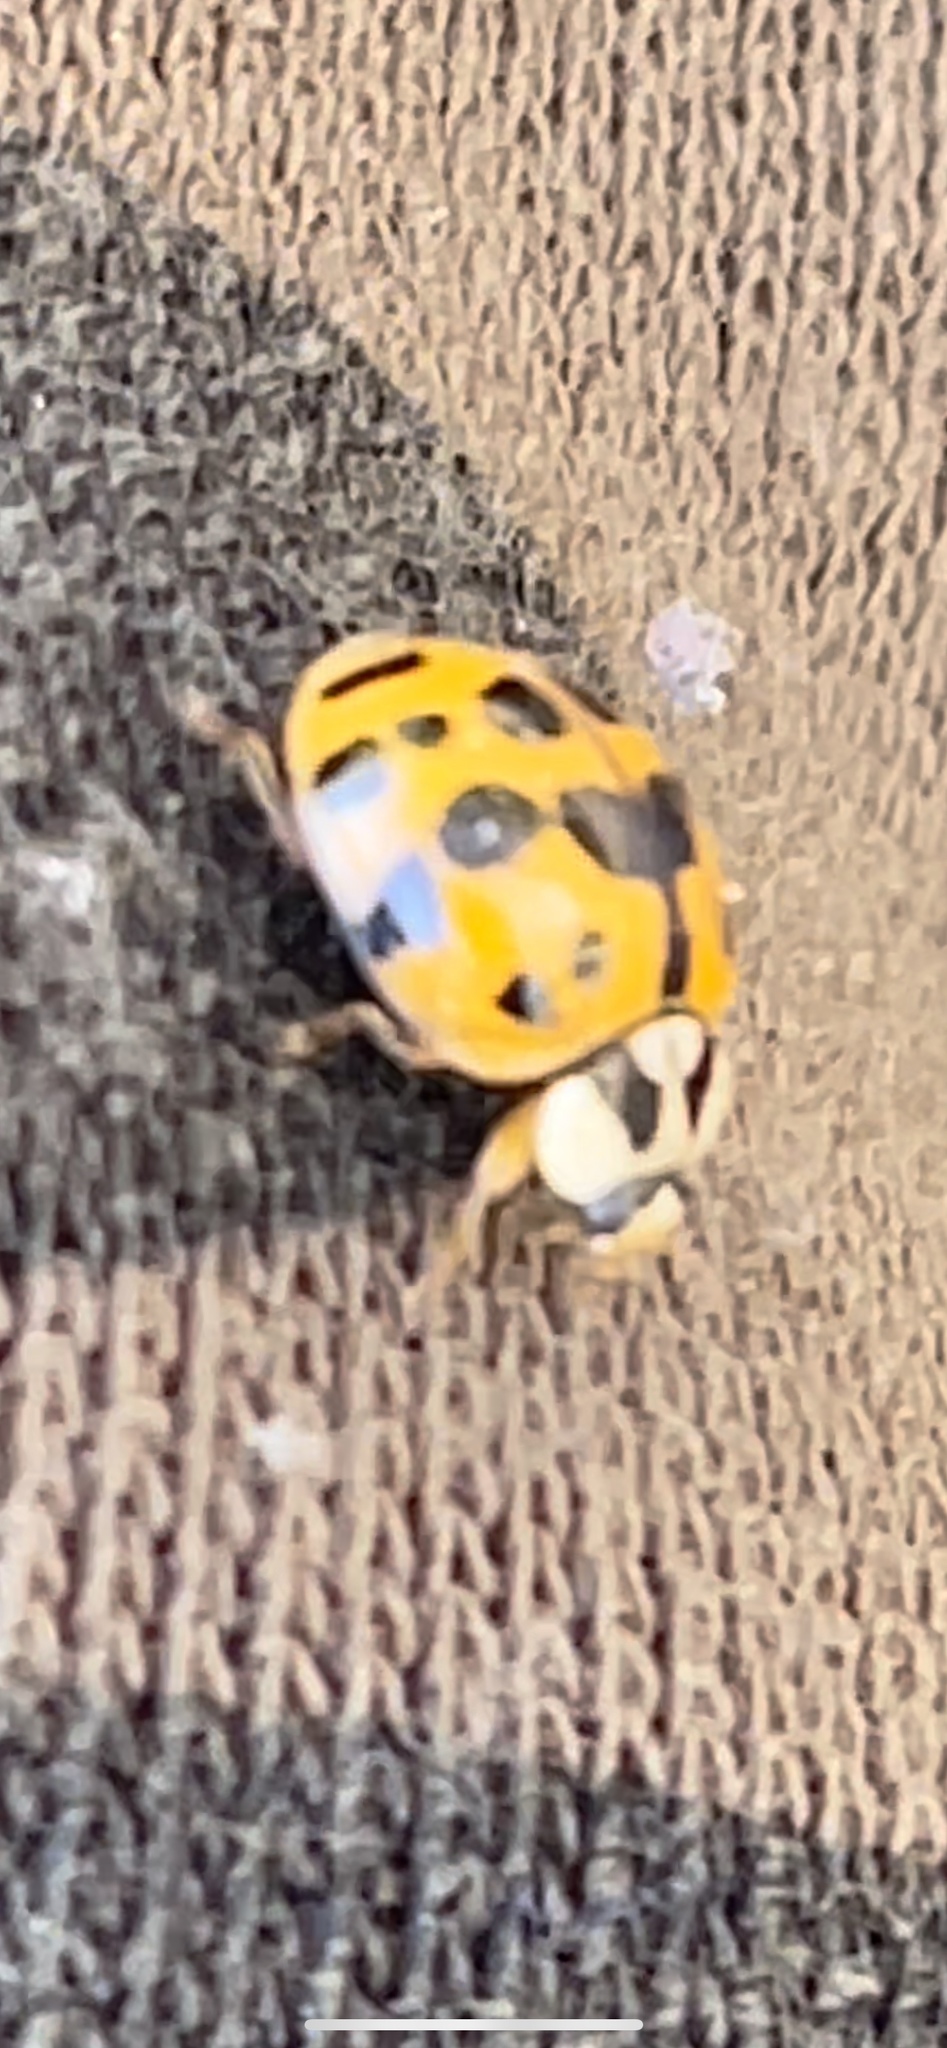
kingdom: Animalia
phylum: Arthropoda
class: Insecta
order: Coleoptera
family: Coccinellidae
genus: Harmonia
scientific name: Harmonia axyridis
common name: Harlequin ladybird
